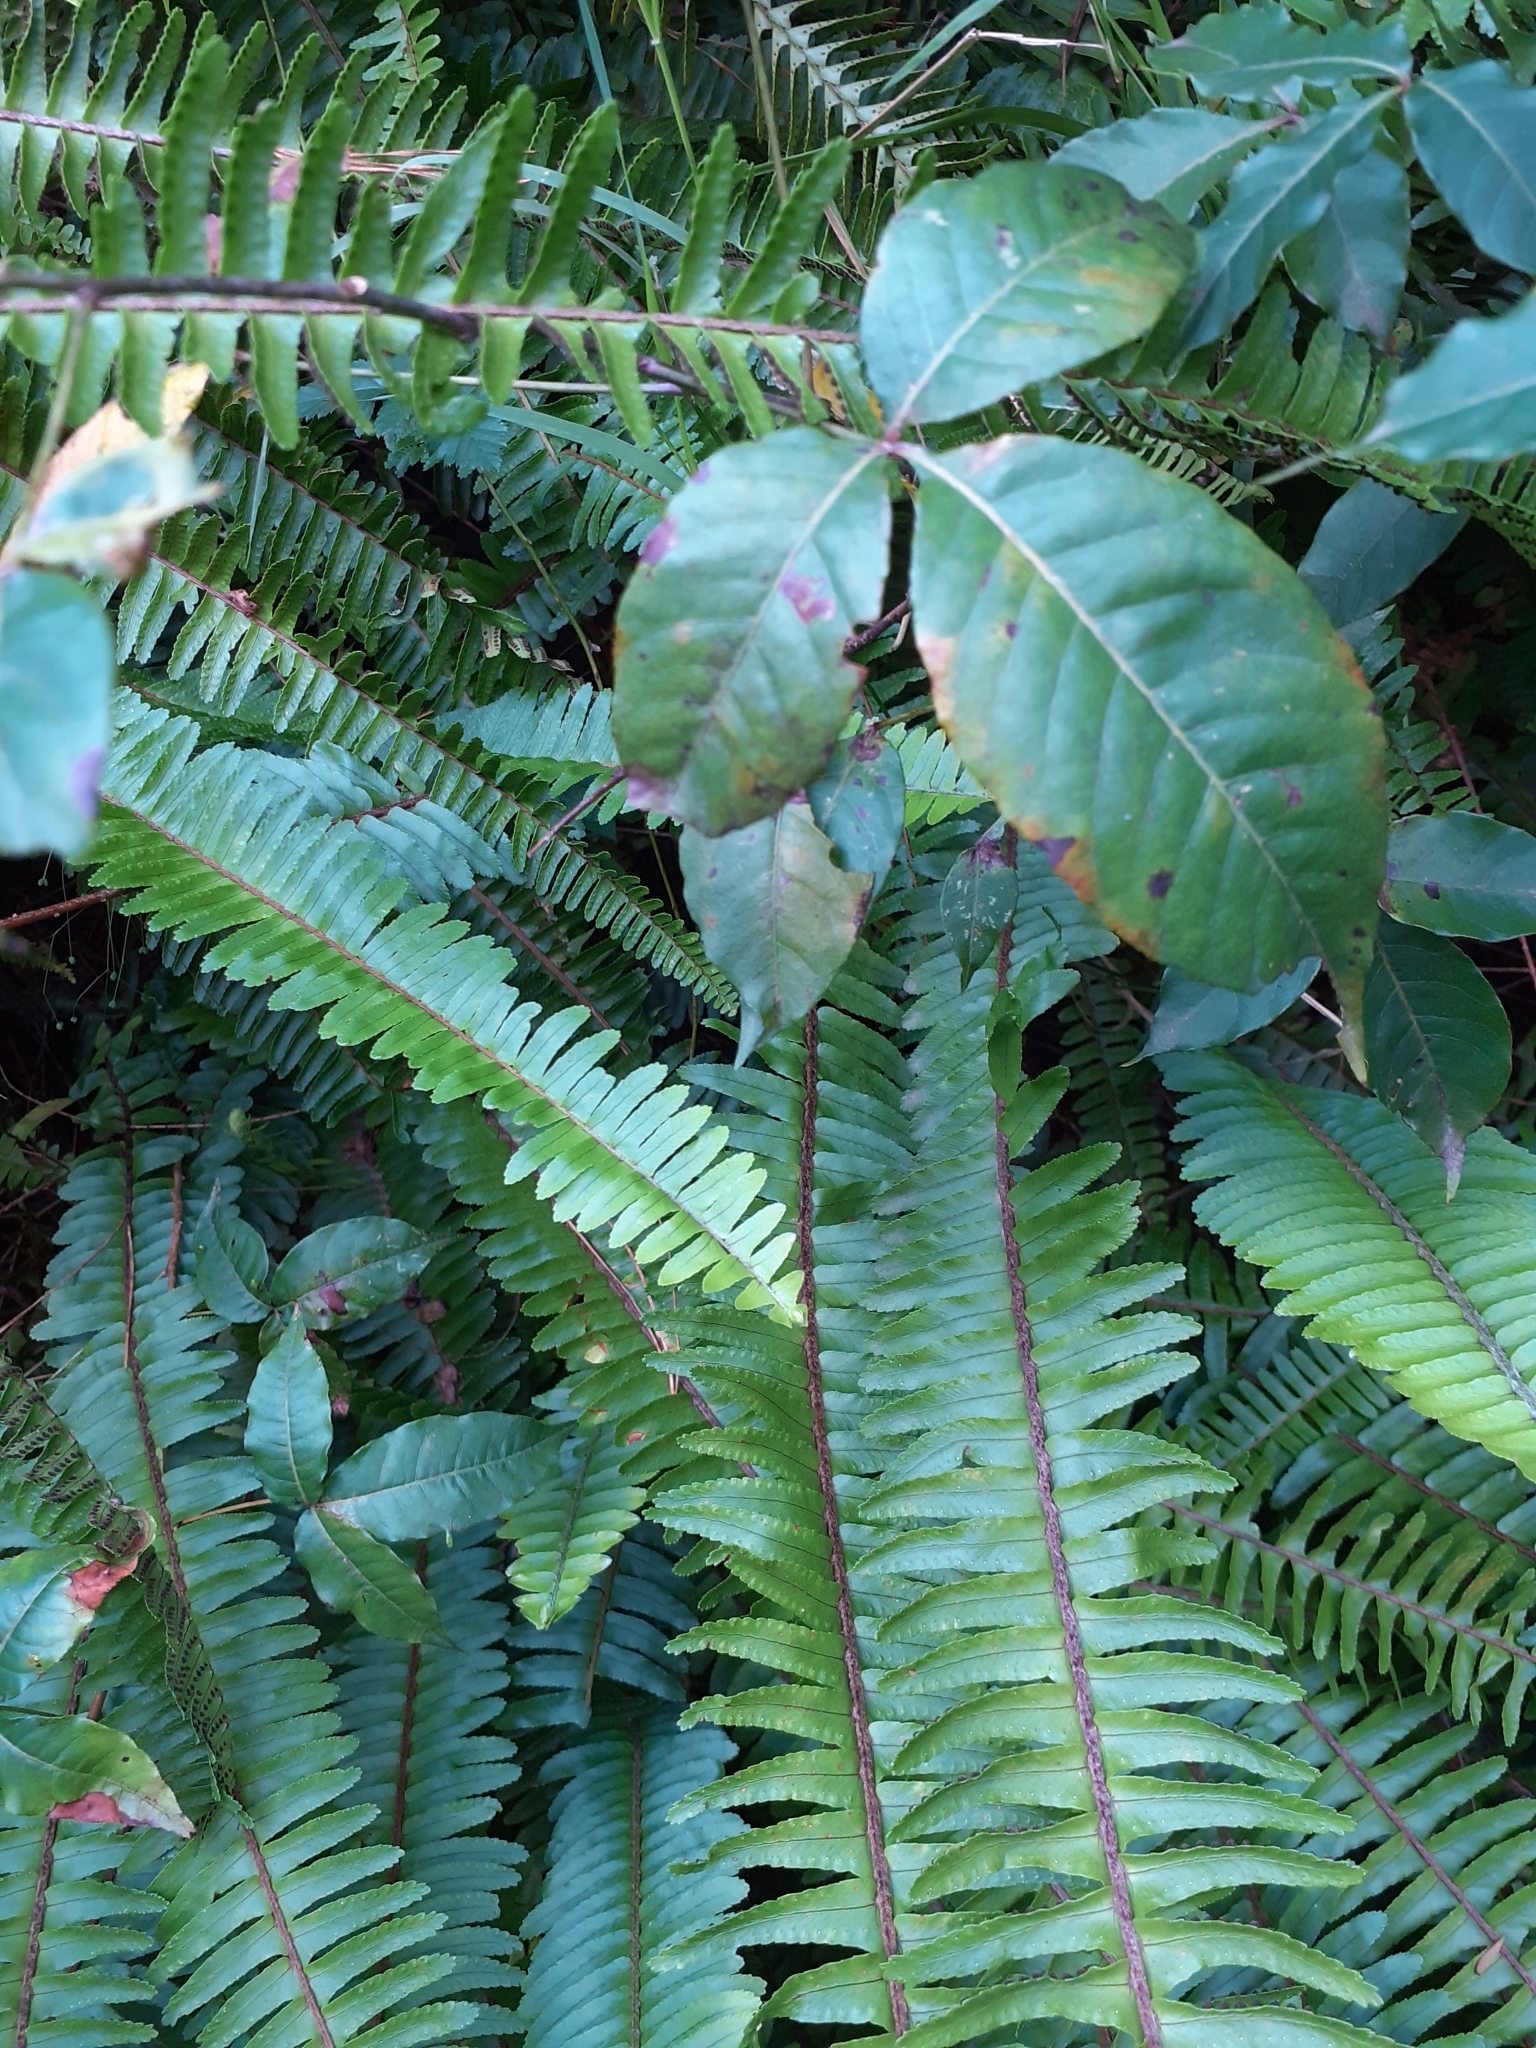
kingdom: Plantae
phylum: Tracheophyta
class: Magnoliopsida
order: Sapindales
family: Anacardiaceae
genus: Searsia
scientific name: Searsia chirindensis
